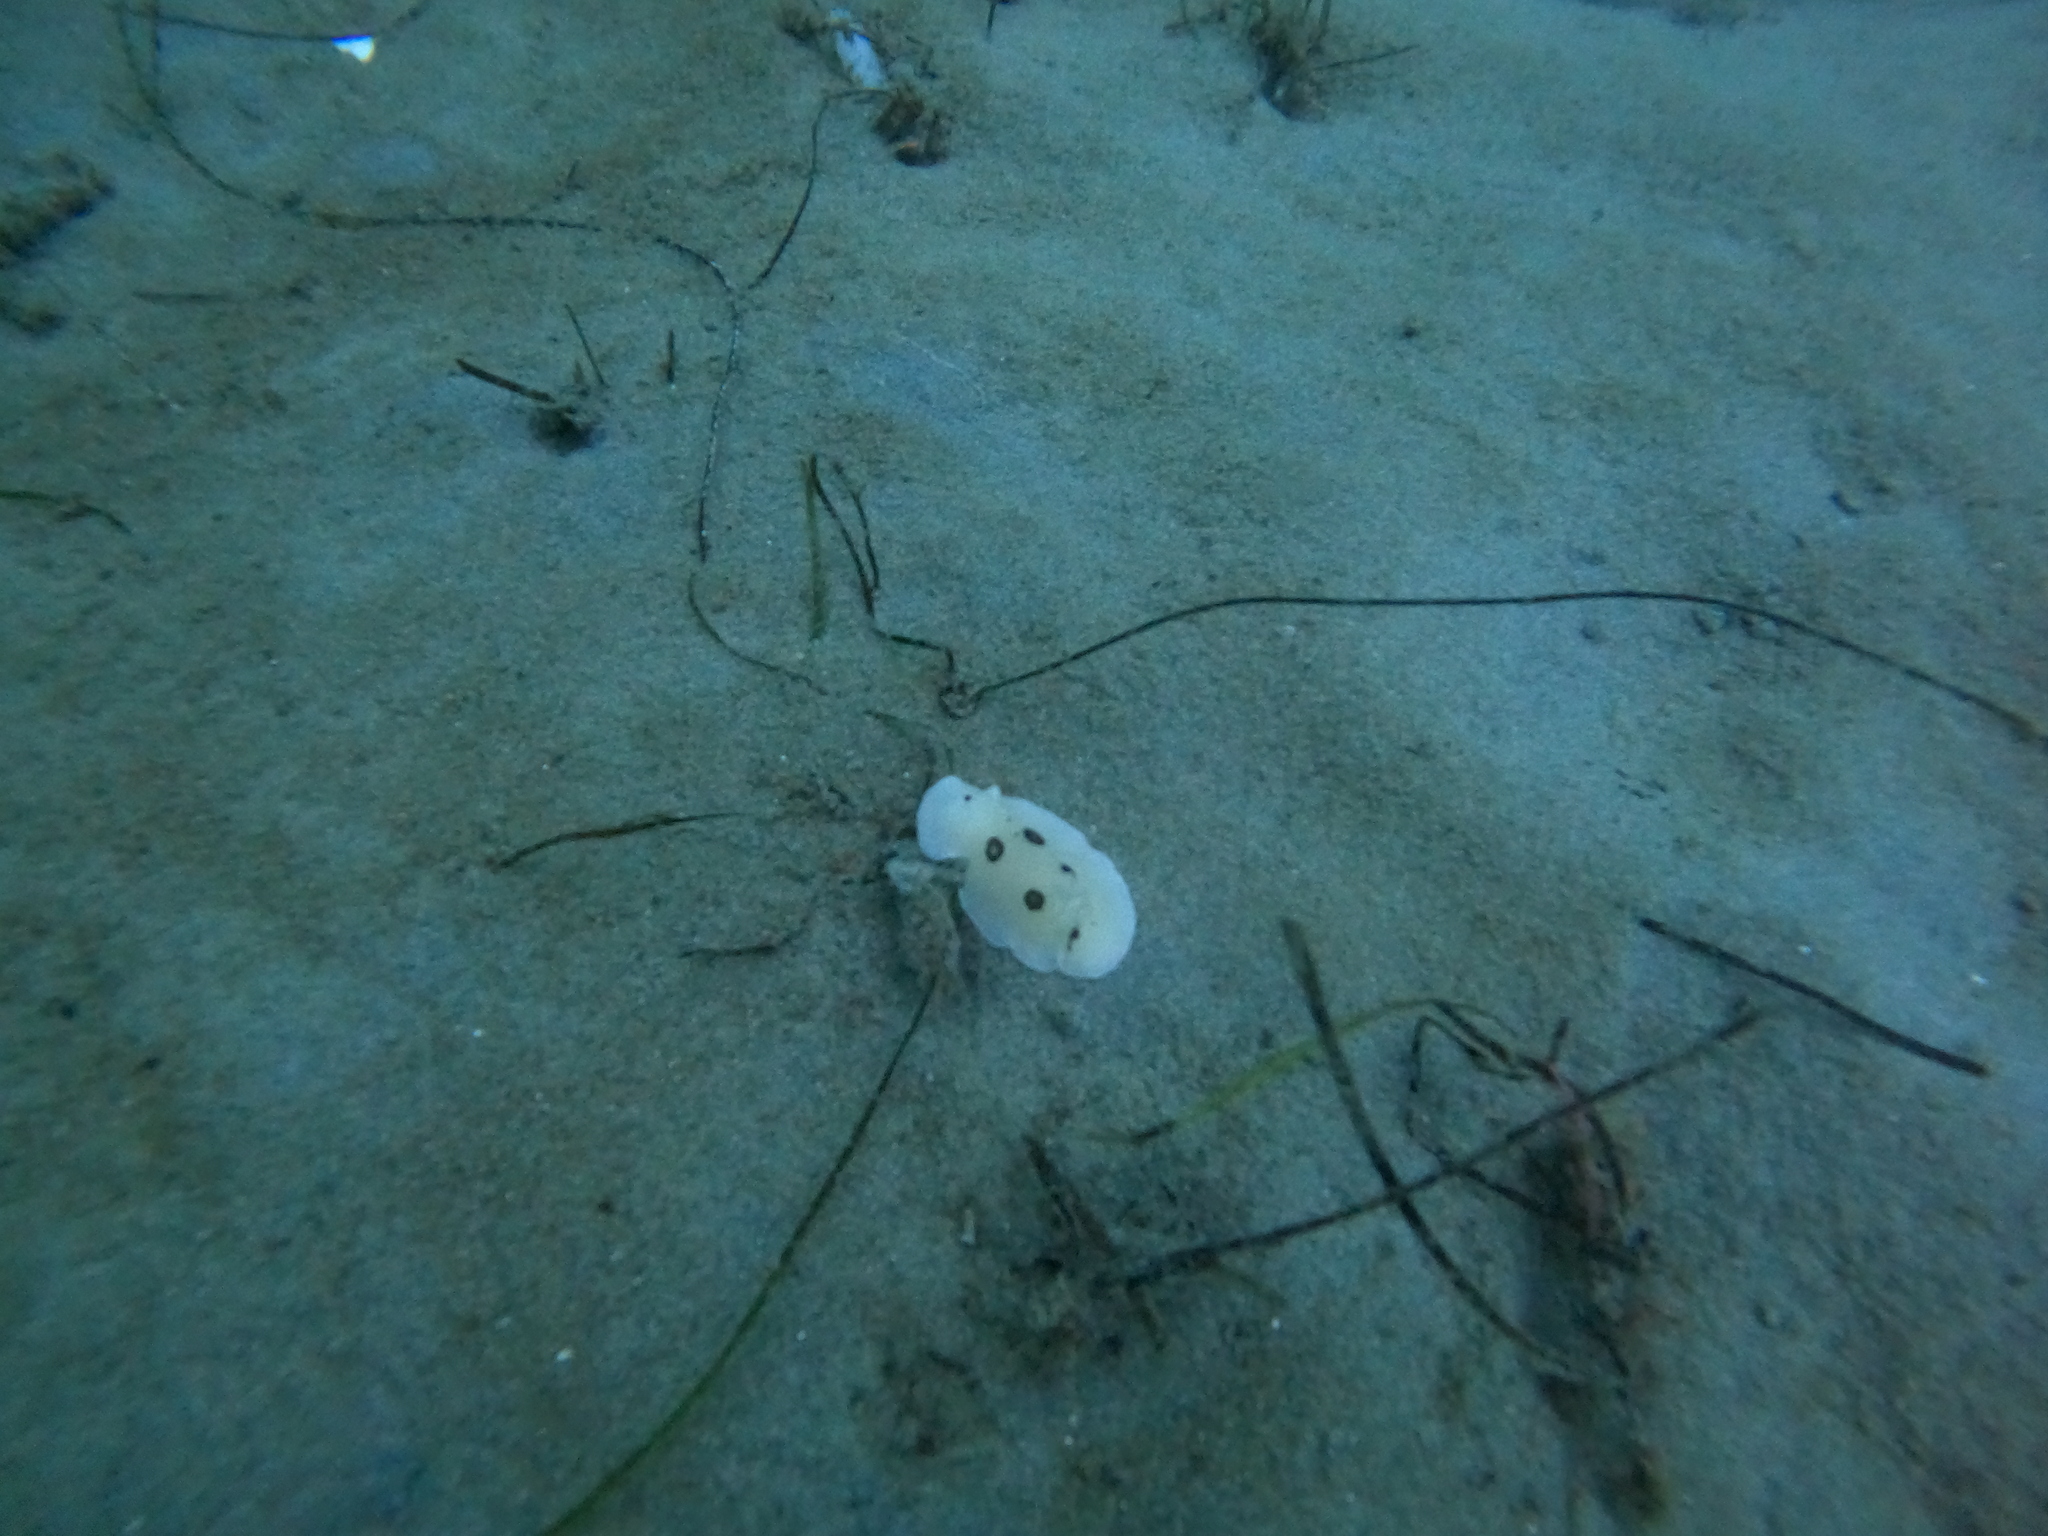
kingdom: Animalia
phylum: Mollusca
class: Gastropoda
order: Nudibranchia
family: Discodorididae
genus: Diaulula
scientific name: Diaulula sandiegensis
